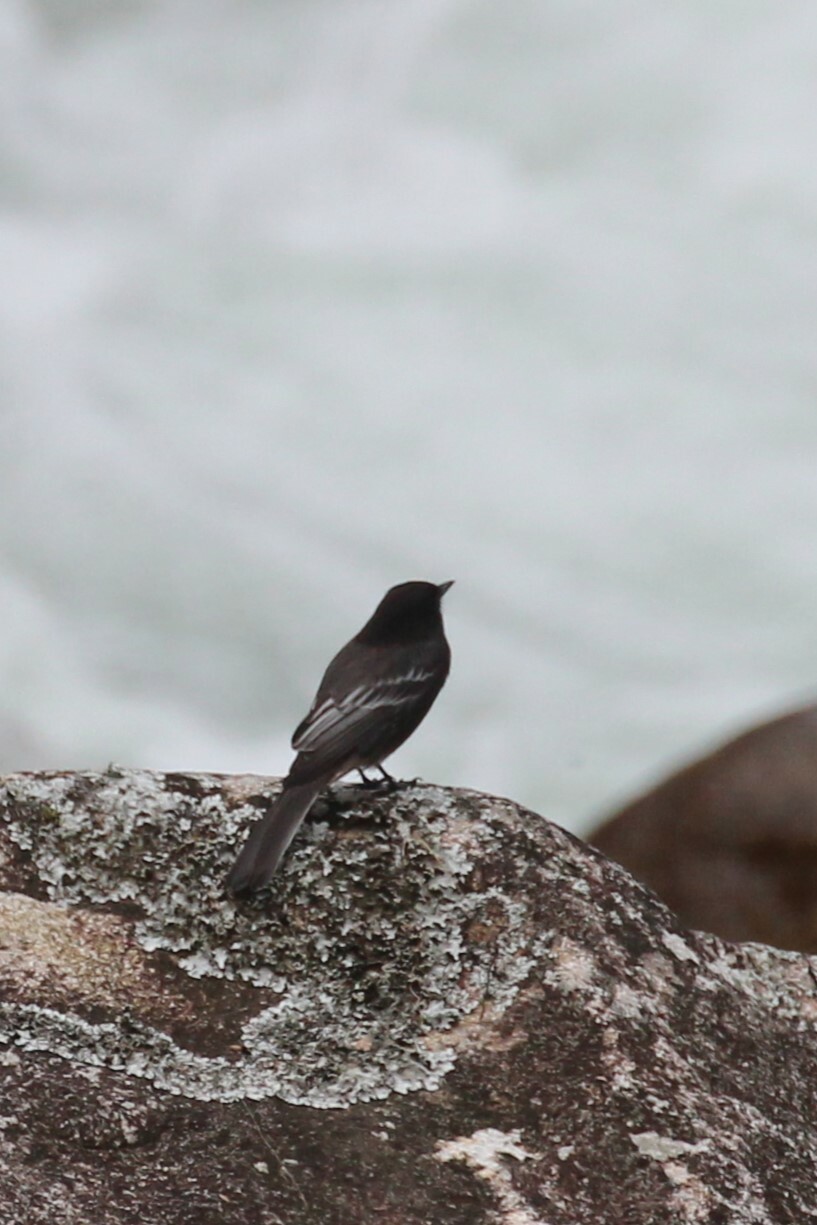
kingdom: Animalia
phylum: Chordata
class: Aves
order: Passeriformes
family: Tyrannidae
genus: Sayornis
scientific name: Sayornis nigricans
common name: Black phoebe
